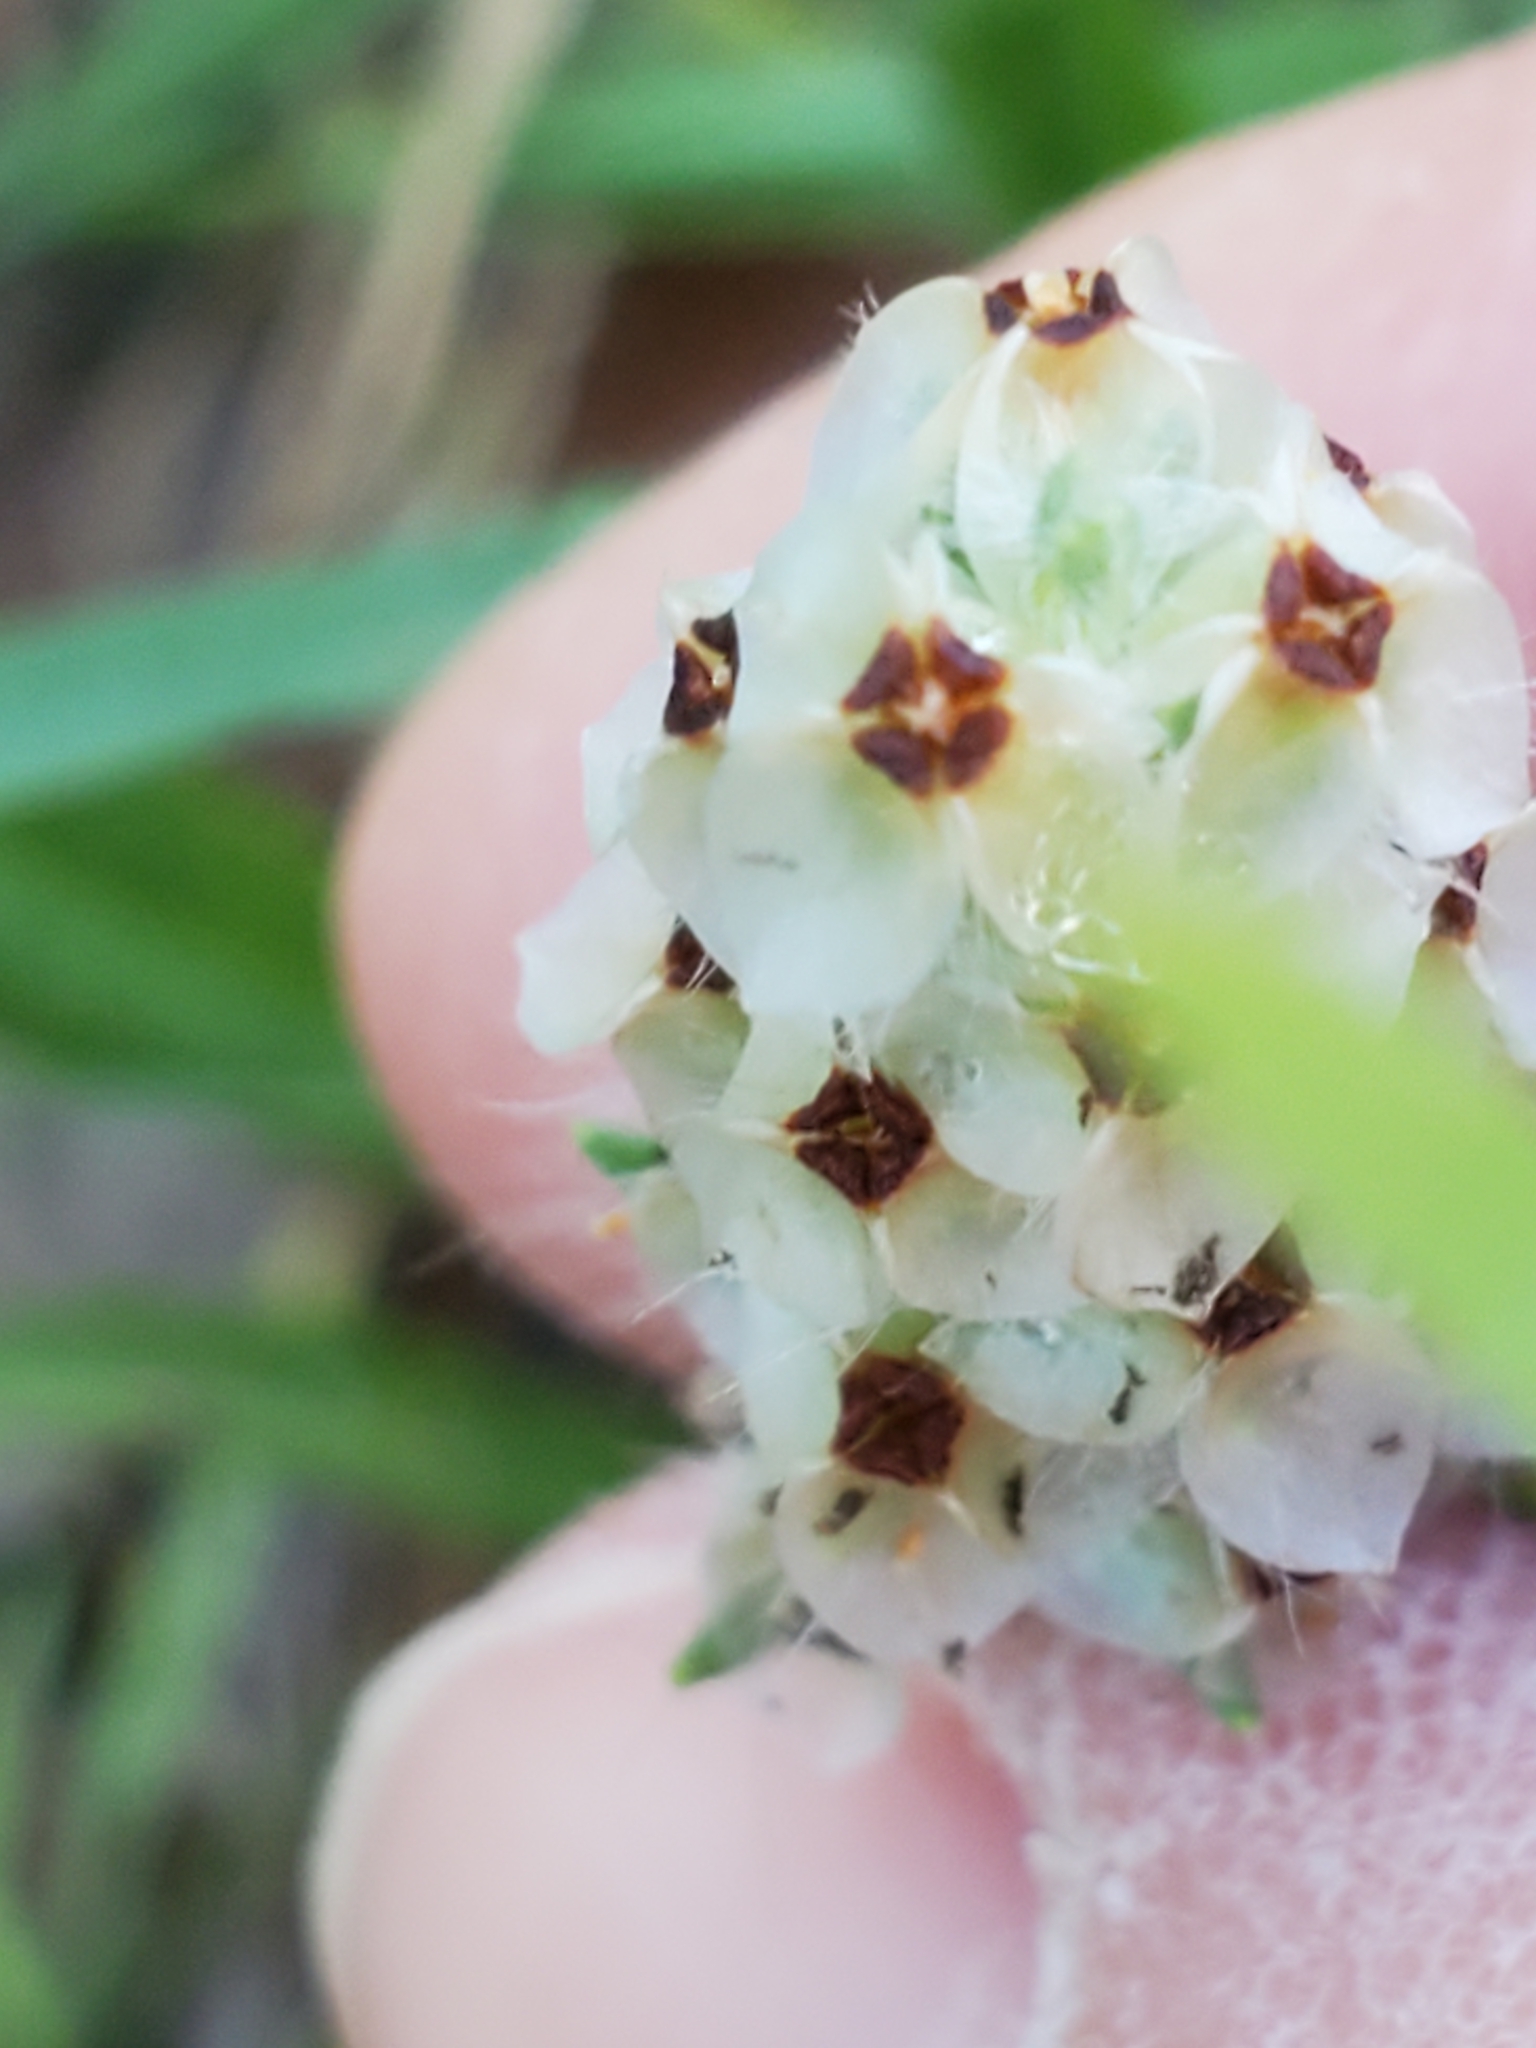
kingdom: Plantae
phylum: Tracheophyta
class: Magnoliopsida
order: Lamiales
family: Plantaginaceae
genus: Plantago
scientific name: Plantago helleri
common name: Heller's plantain
